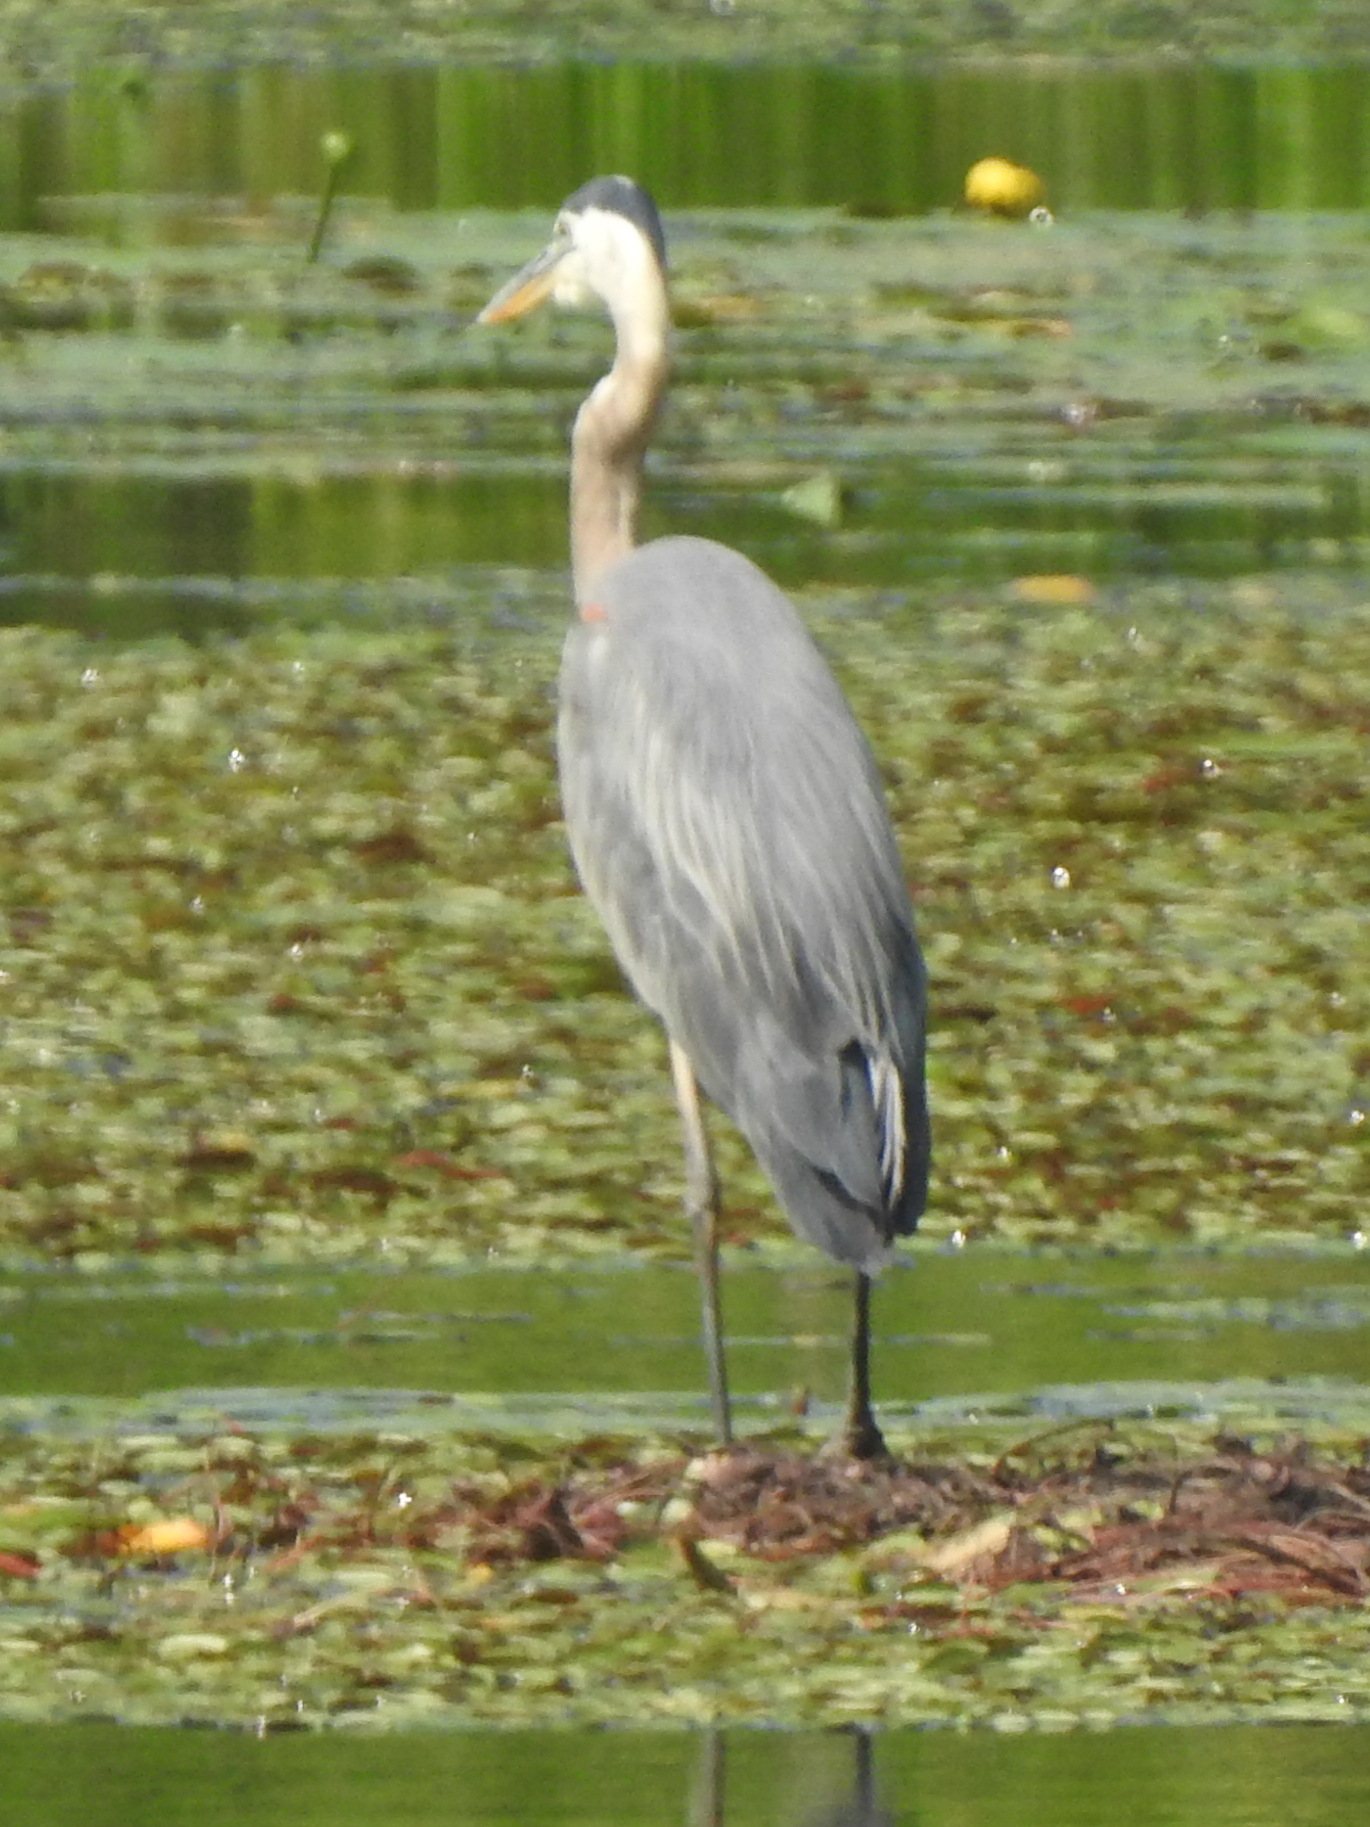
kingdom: Animalia
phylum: Chordata
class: Aves
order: Pelecaniformes
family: Ardeidae
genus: Ardea
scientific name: Ardea herodias
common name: Great blue heron
